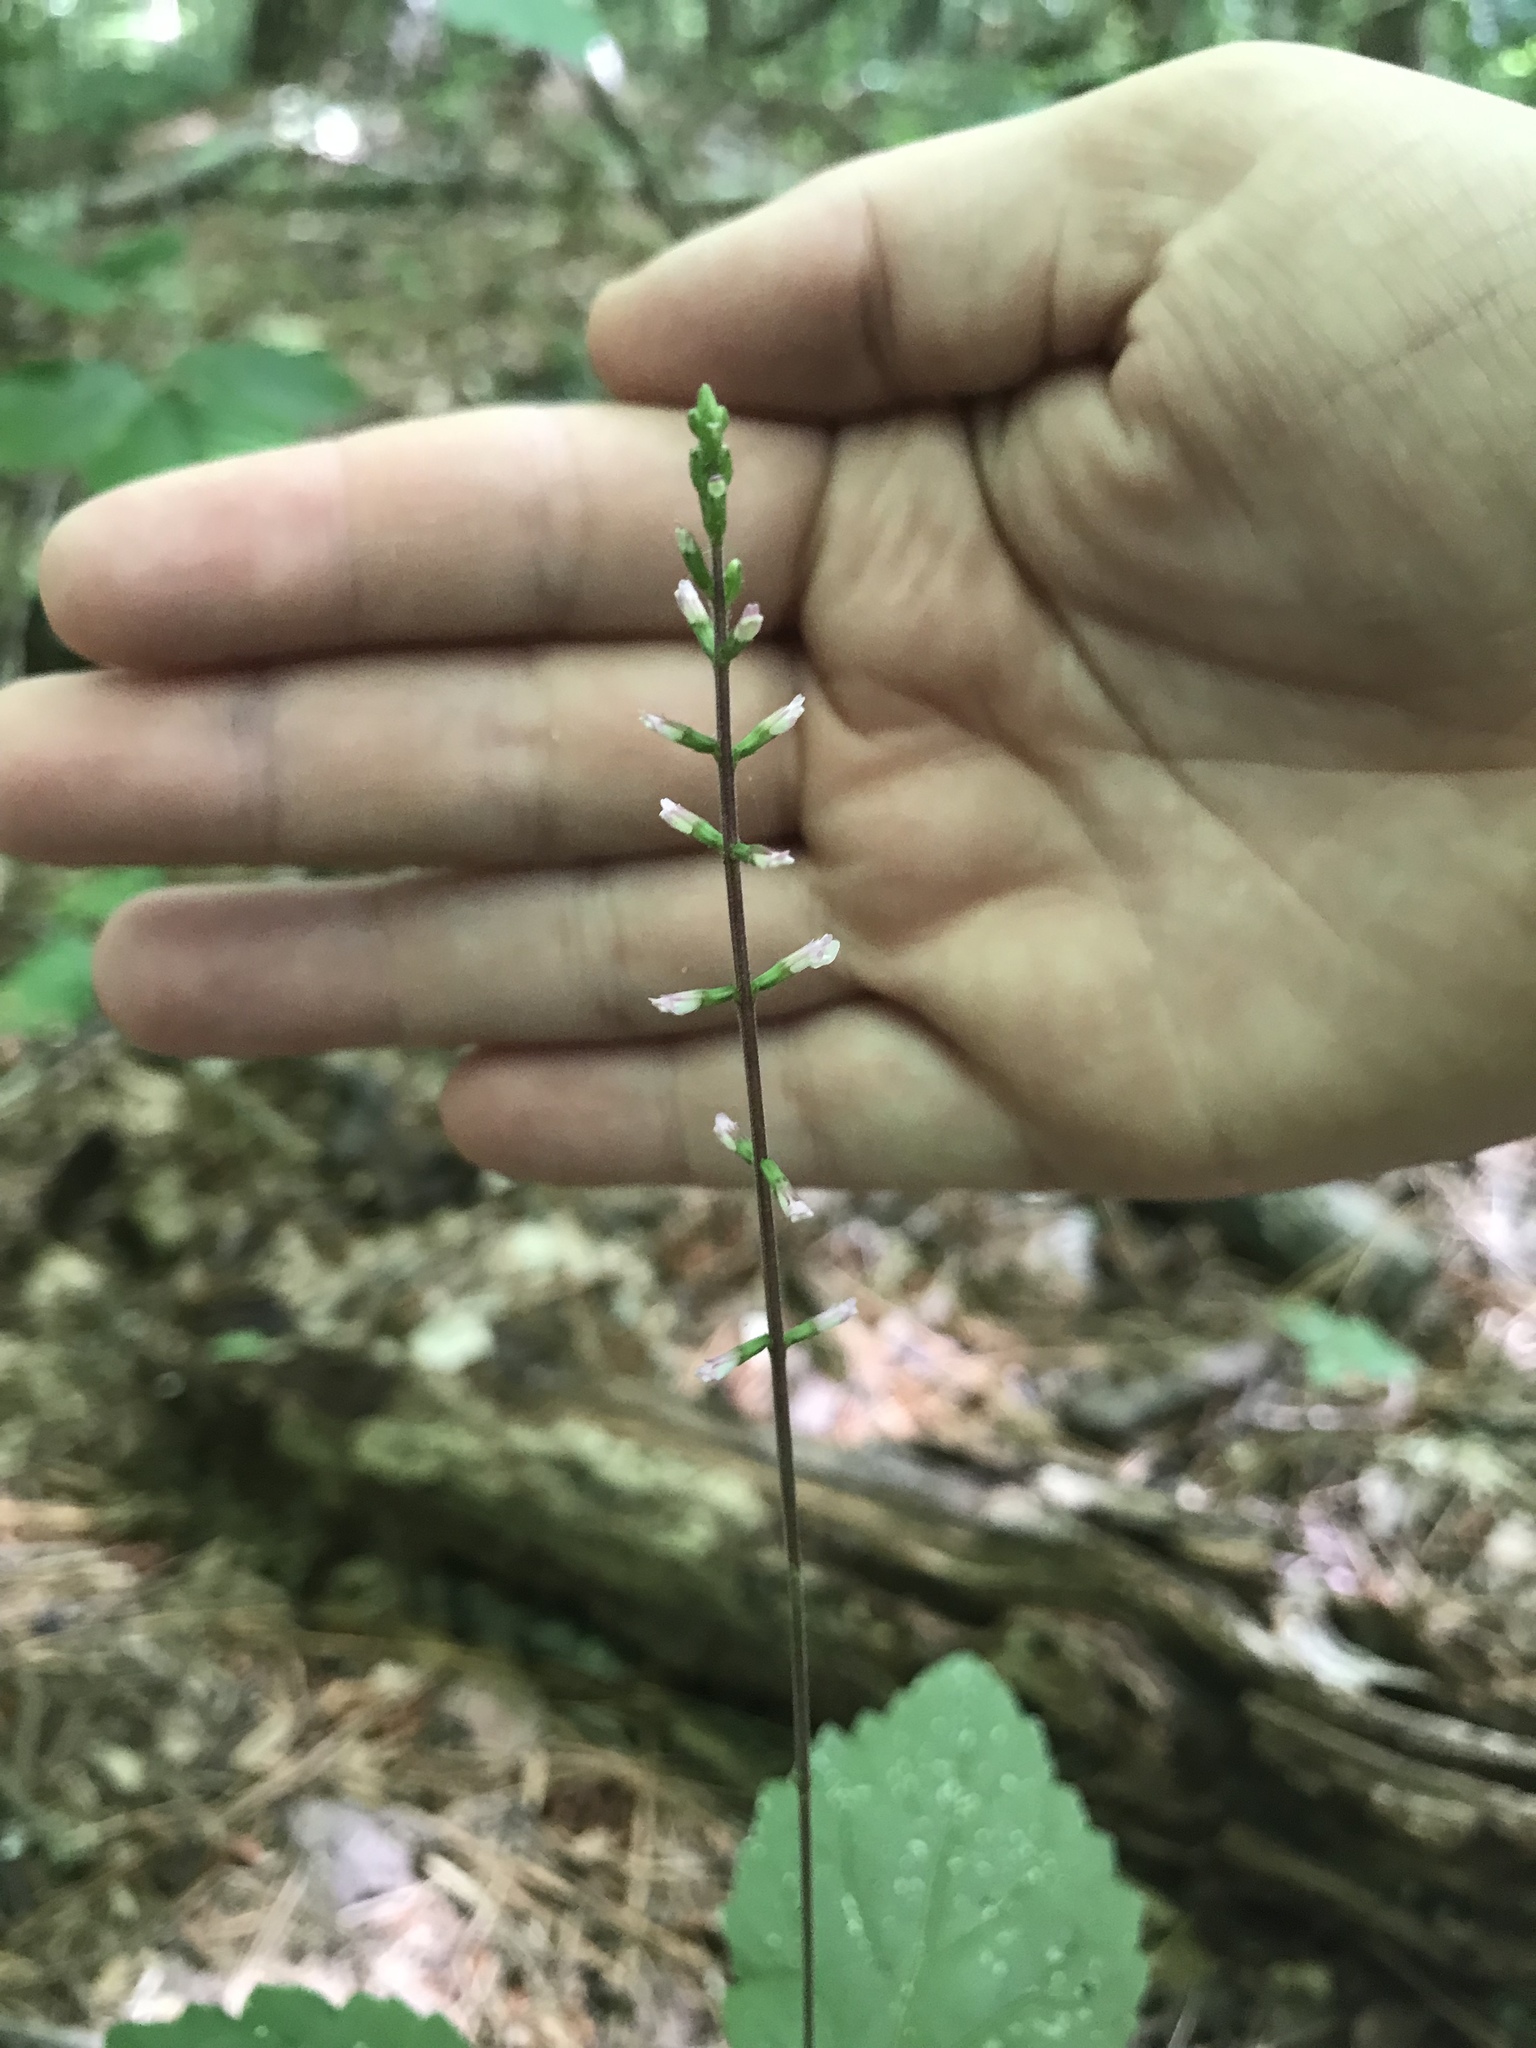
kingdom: Plantae
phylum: Tracheophyta
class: Magnoliopsida
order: Lamiales
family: Phrymaceae
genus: Phryma
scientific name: Phryma leptostachya
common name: American lopseed
